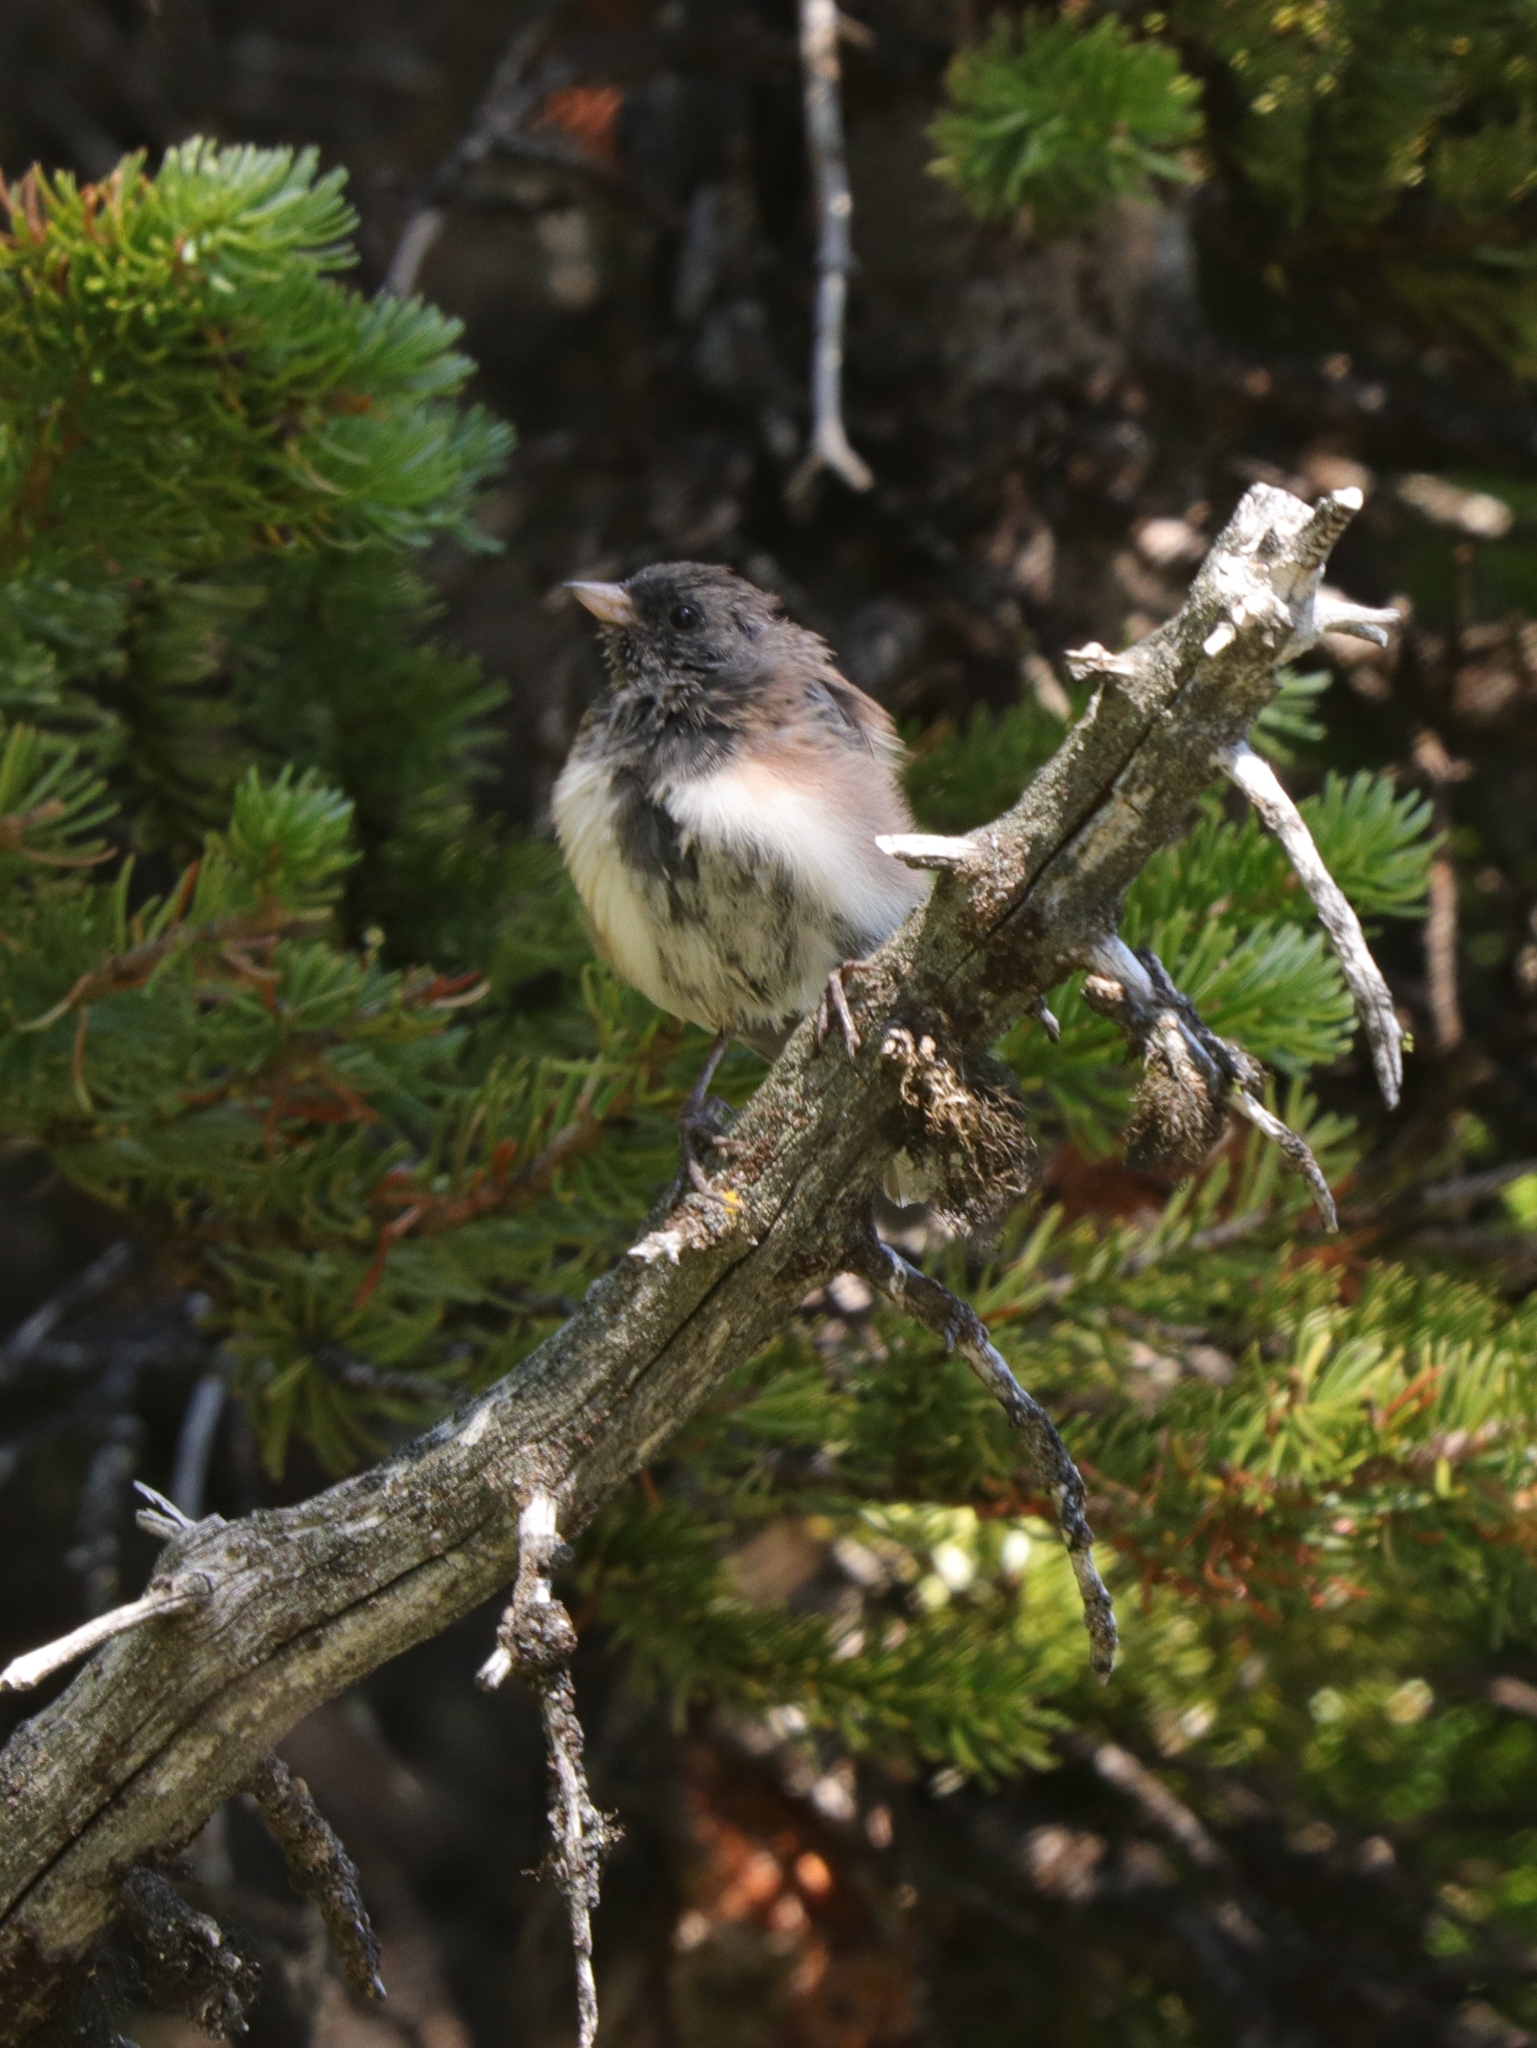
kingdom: Animalia
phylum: Chordata
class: Aves
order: Passeriformes
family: Passerellidae
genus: Junco
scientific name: Junco hyemalis
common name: Dark-eyed junco
